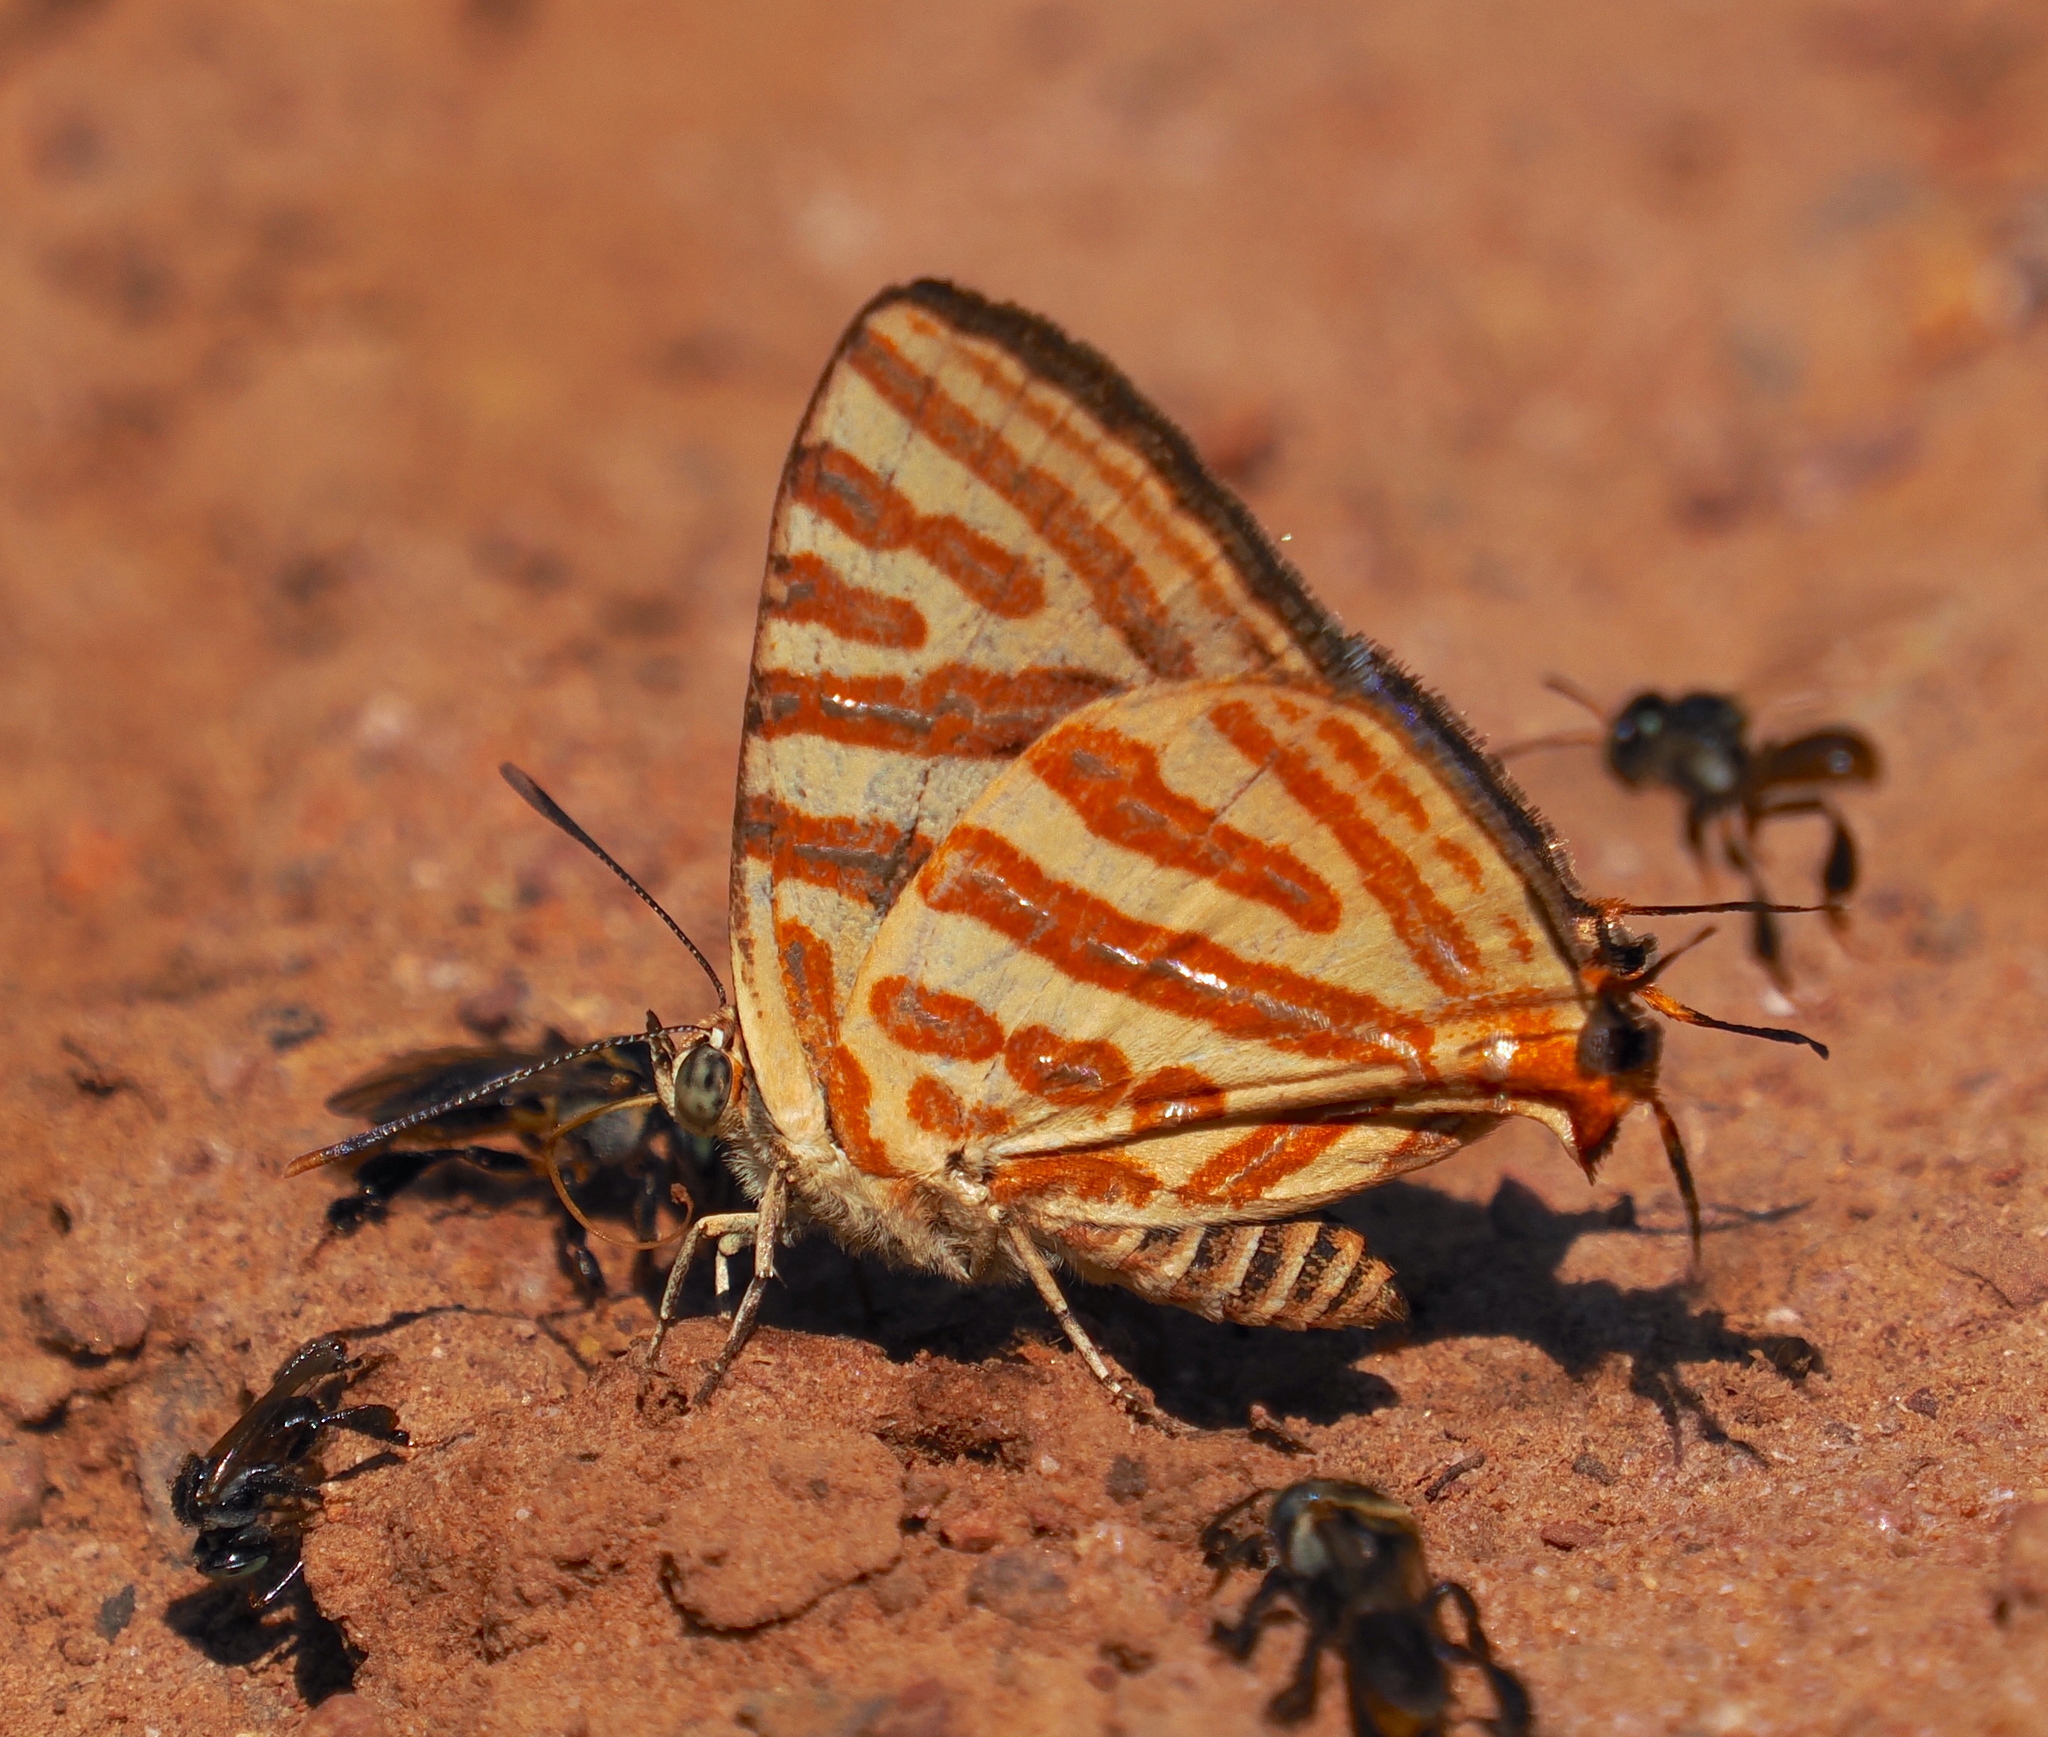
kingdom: Animalia
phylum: Arthropoda
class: Insecta
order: Lepidoptera
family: Lycaenidae
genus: Cigaritis
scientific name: Cigaritis syama
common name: Club silverline
